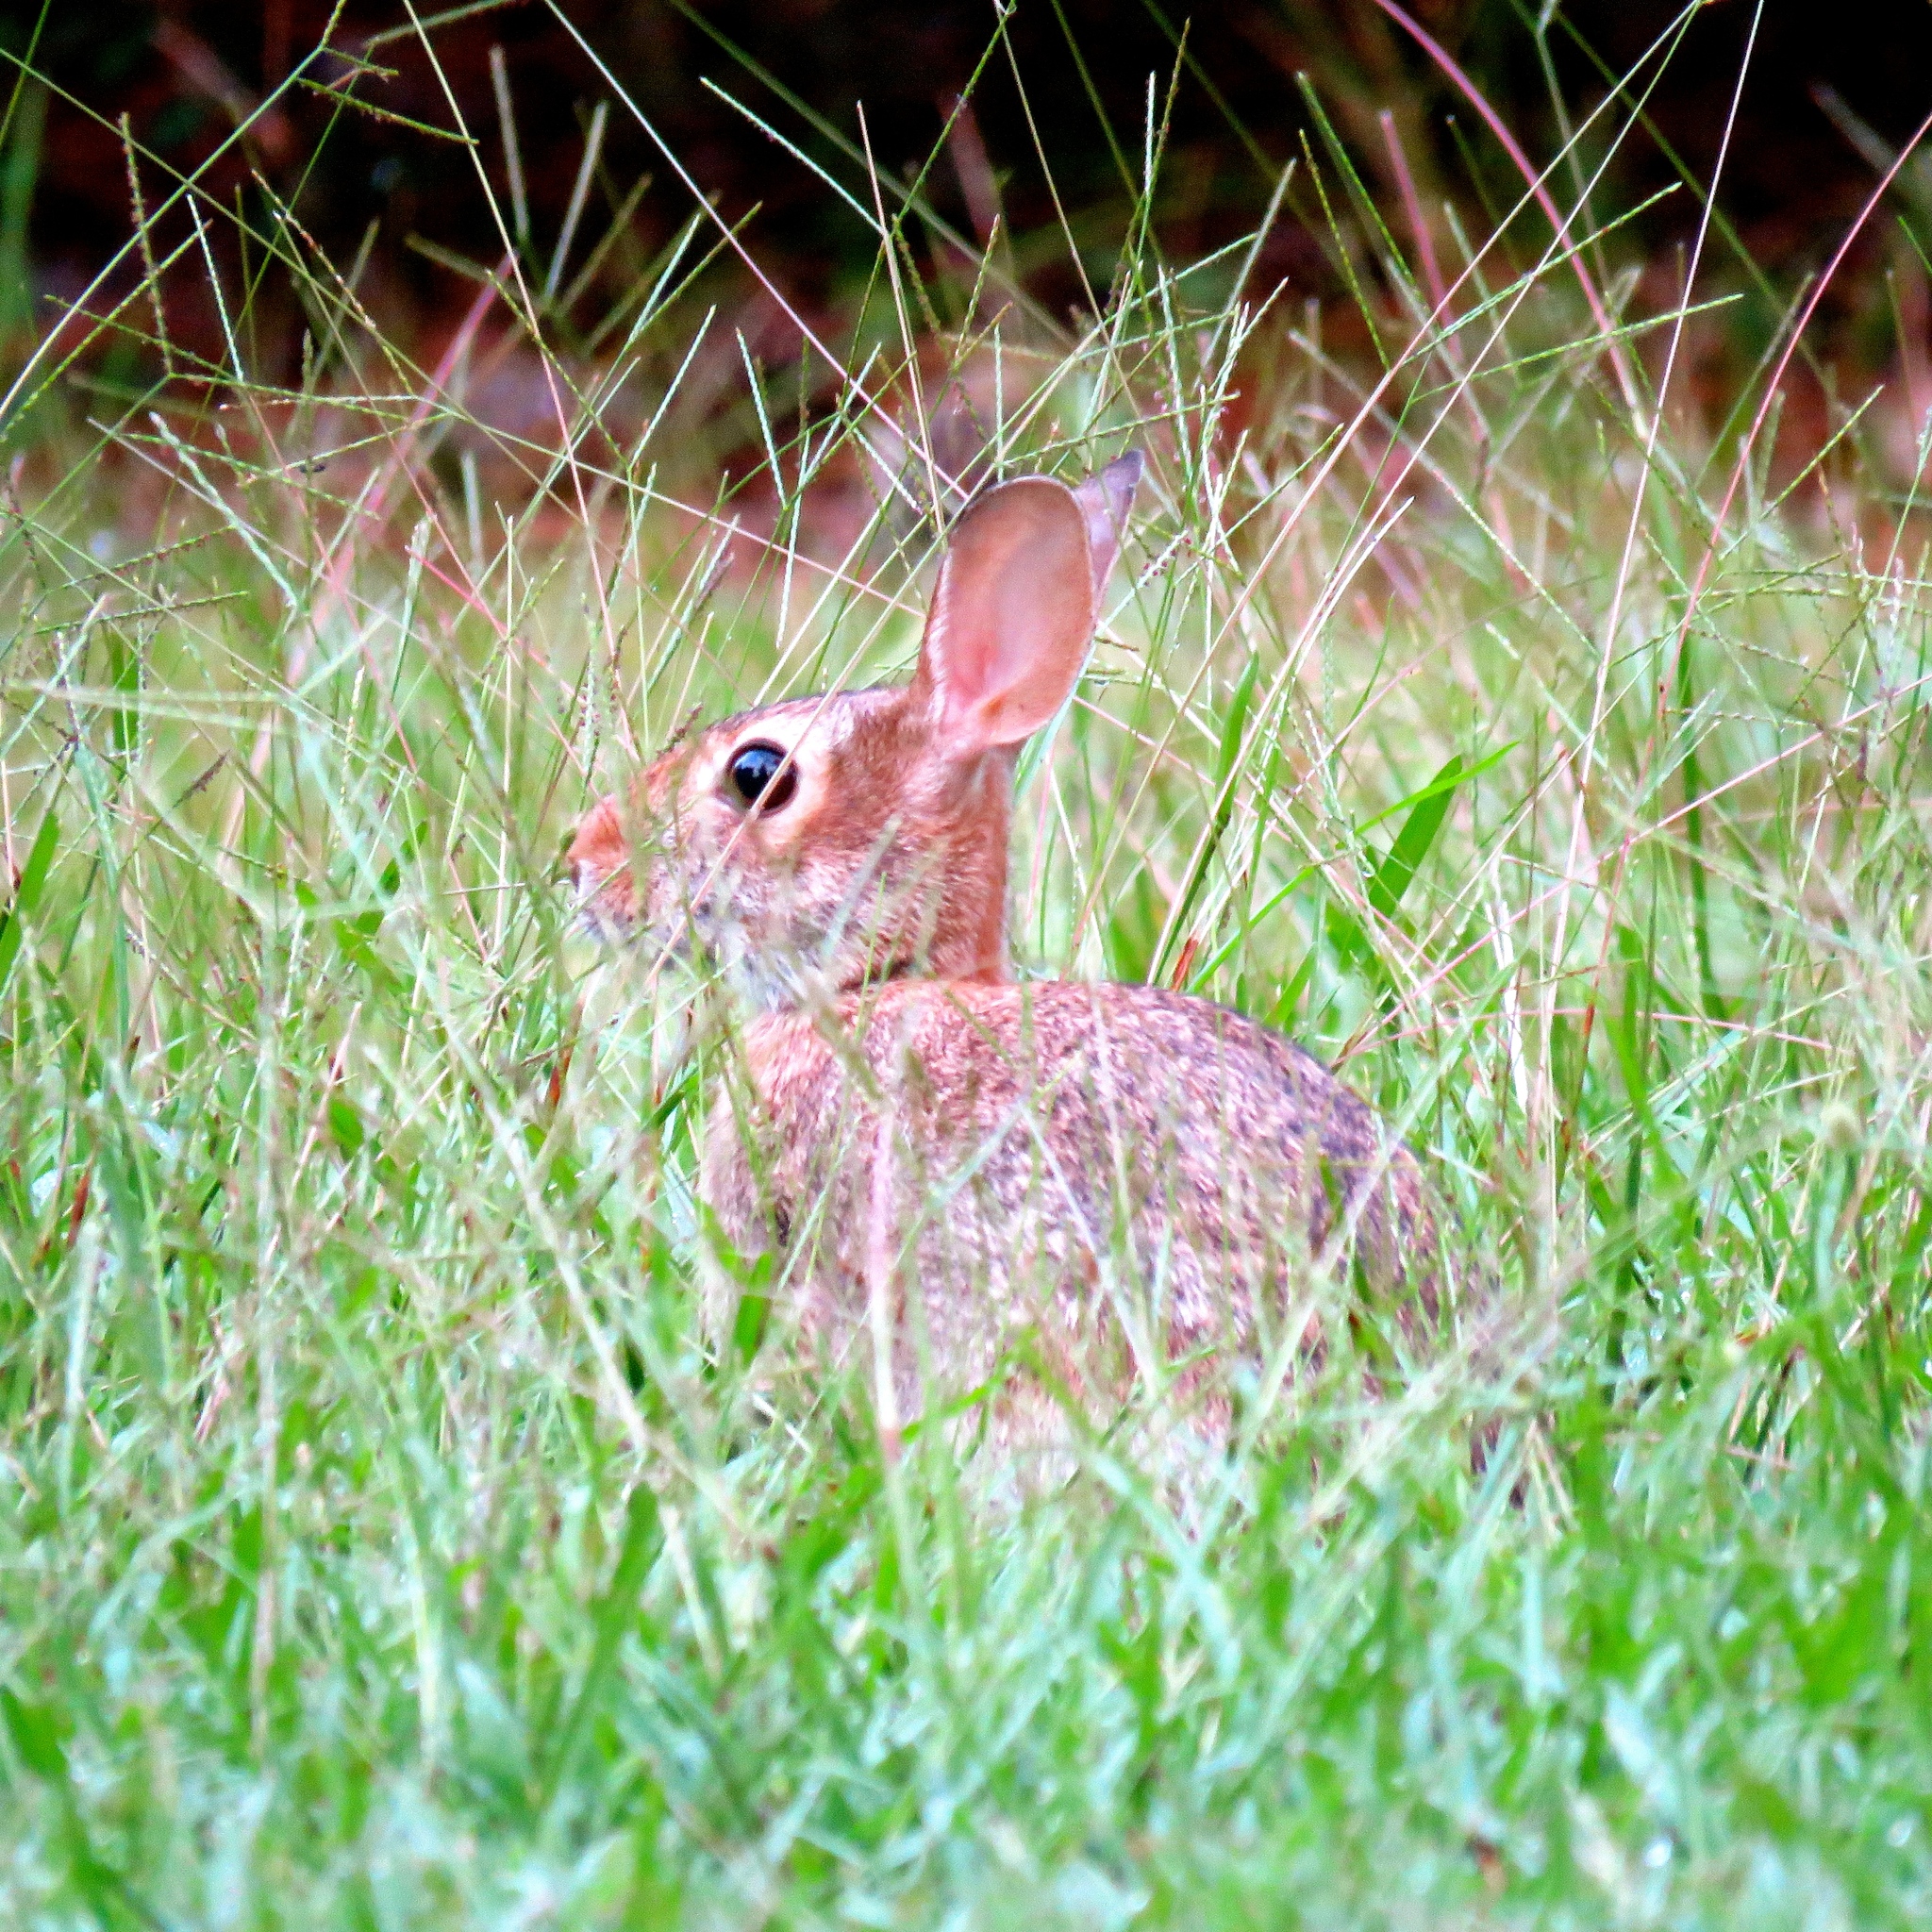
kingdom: Animalia
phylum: Chordata
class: Mammalia
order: Lagomorpha
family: Leporidae
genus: Sylvilagus
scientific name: Sylvilagus floridanus
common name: Eastern cottontail
